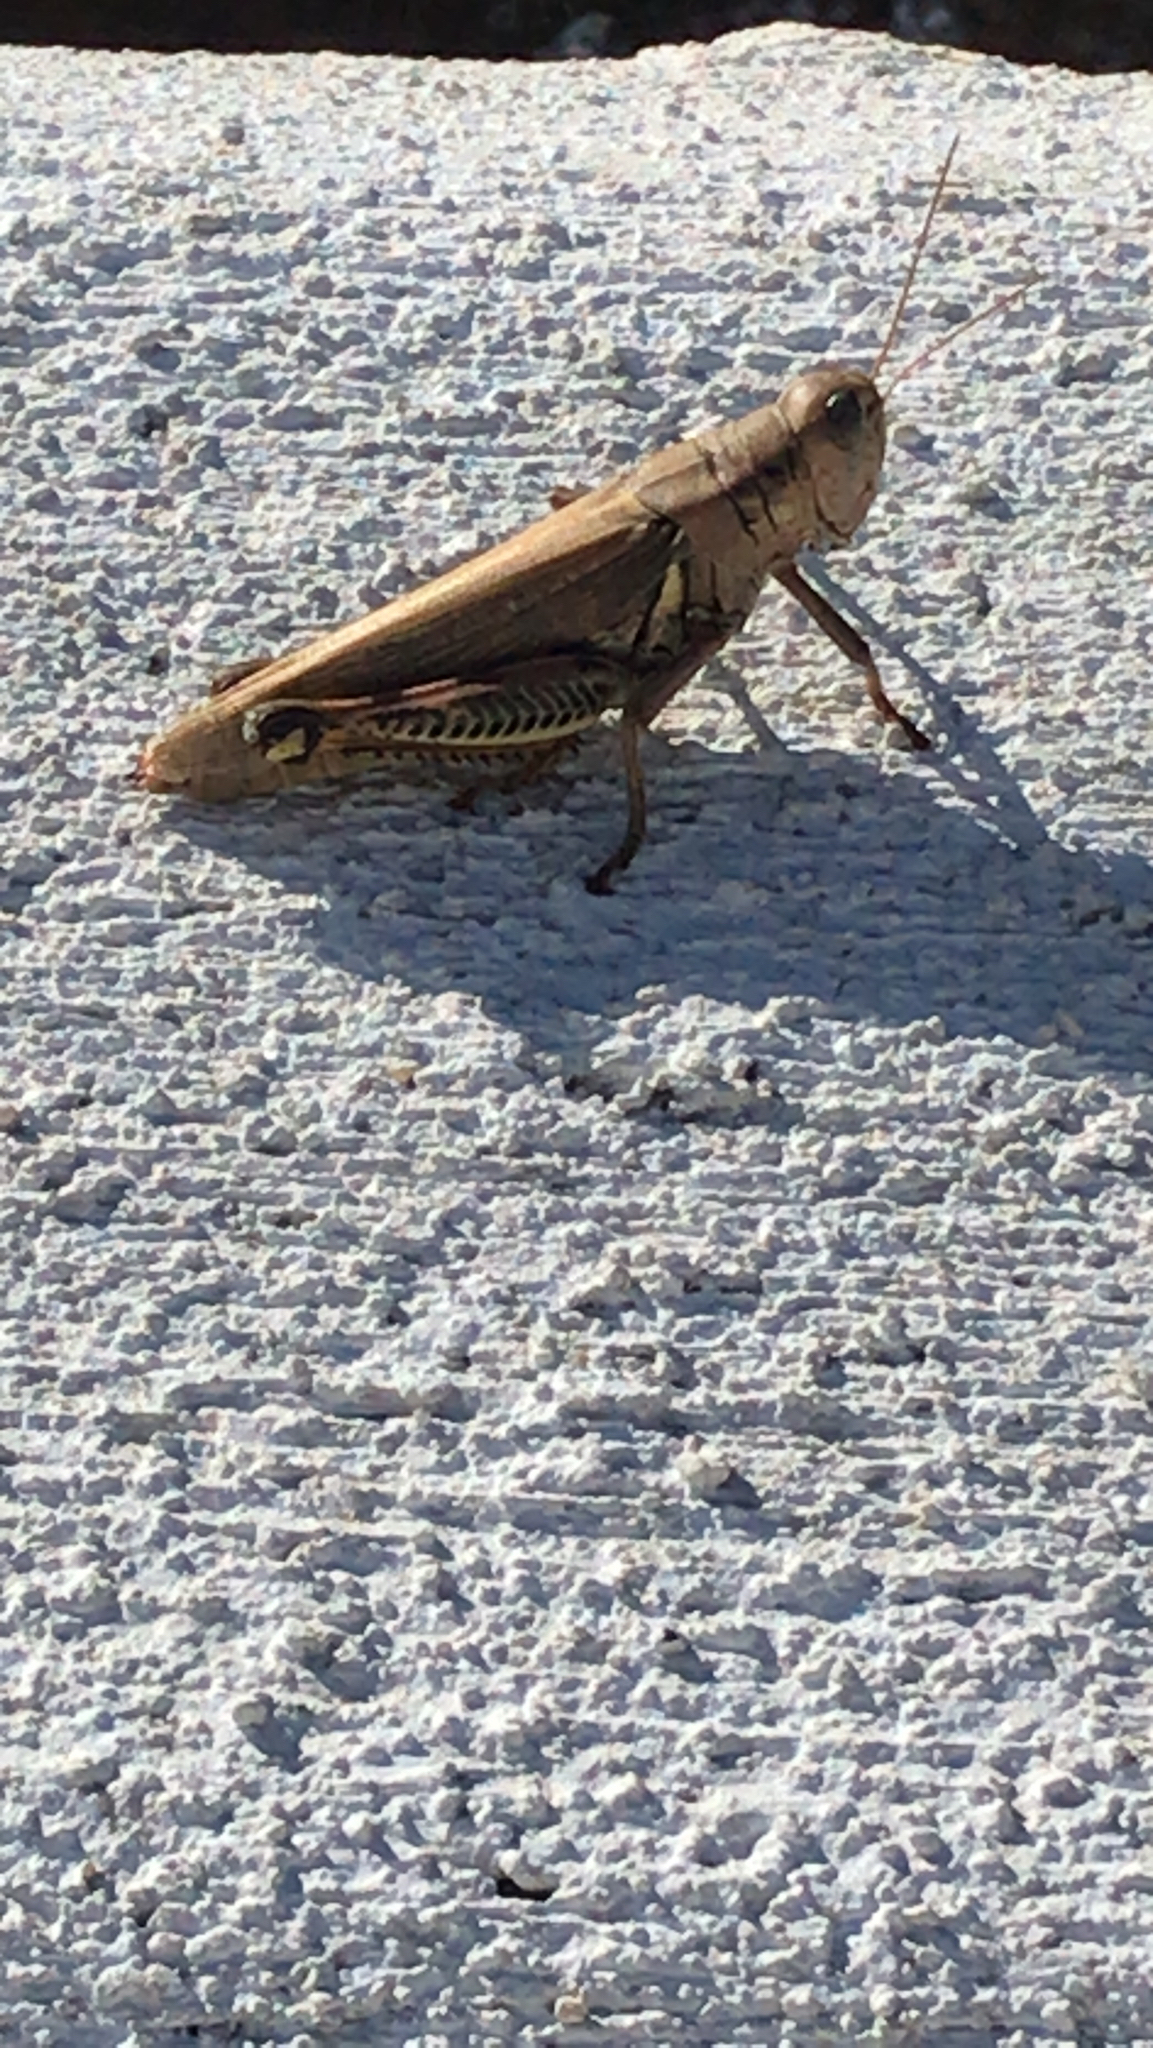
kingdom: Animalia
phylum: Arthropoda
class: Insecta
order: Orthoptera
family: Acrididae
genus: Melanoplus
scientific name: Melanoplus differentialis
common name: Differential grasshopper
